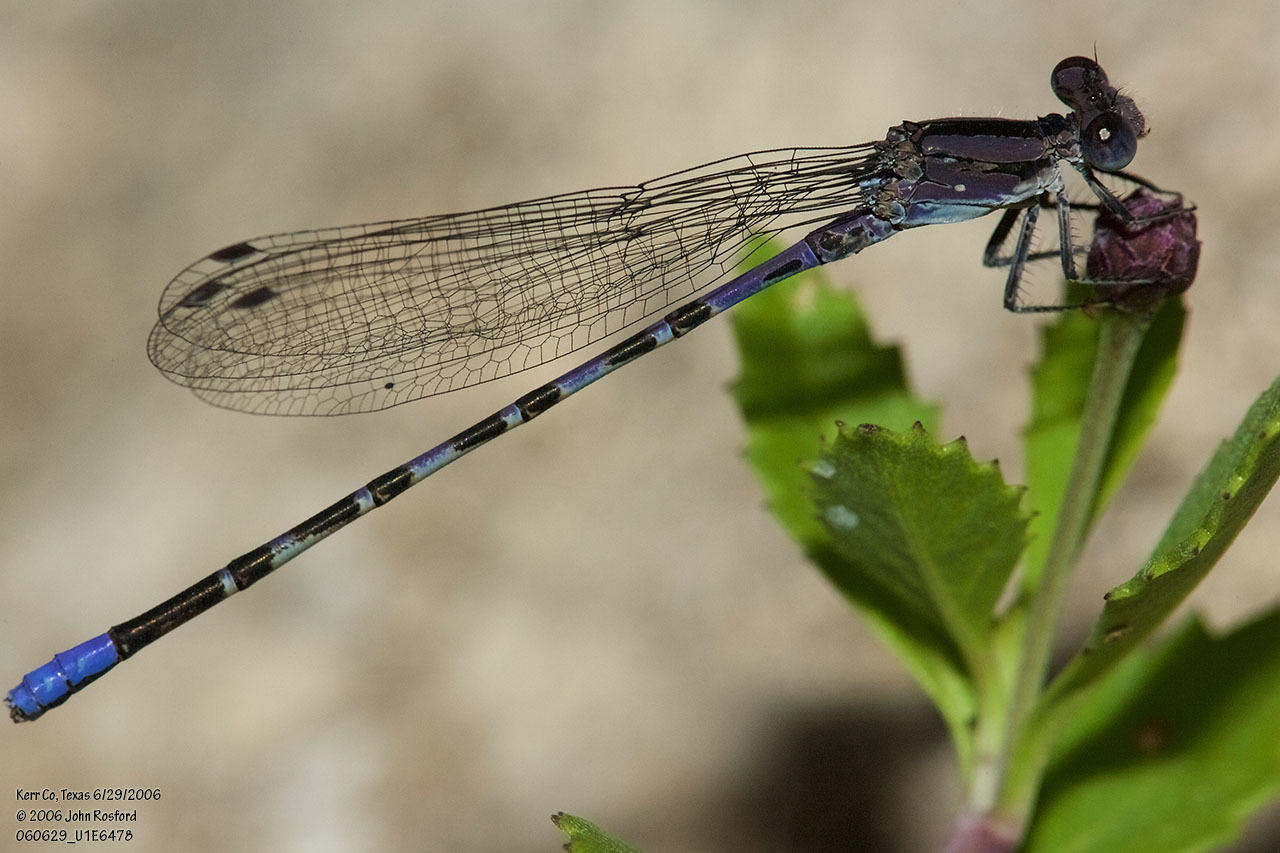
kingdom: Animalia
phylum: Arthropoda
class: Insecta
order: Odonata
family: Coenagrionidae
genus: Argia
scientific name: Argia immunda
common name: Kiowa dancer
